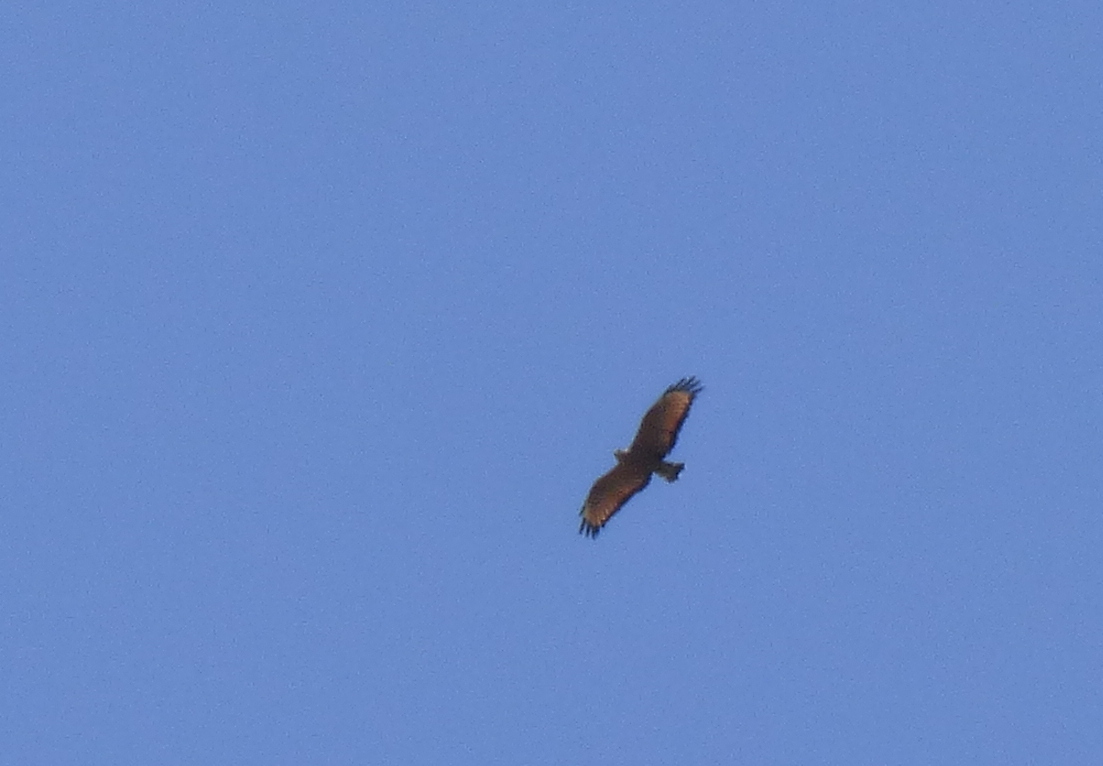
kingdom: Animalia
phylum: Chordata
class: Aves
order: Accipitriformes
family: Accipitridae
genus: Buteogallus
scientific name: Buteogallus meridionalis
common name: Savanna hawk
